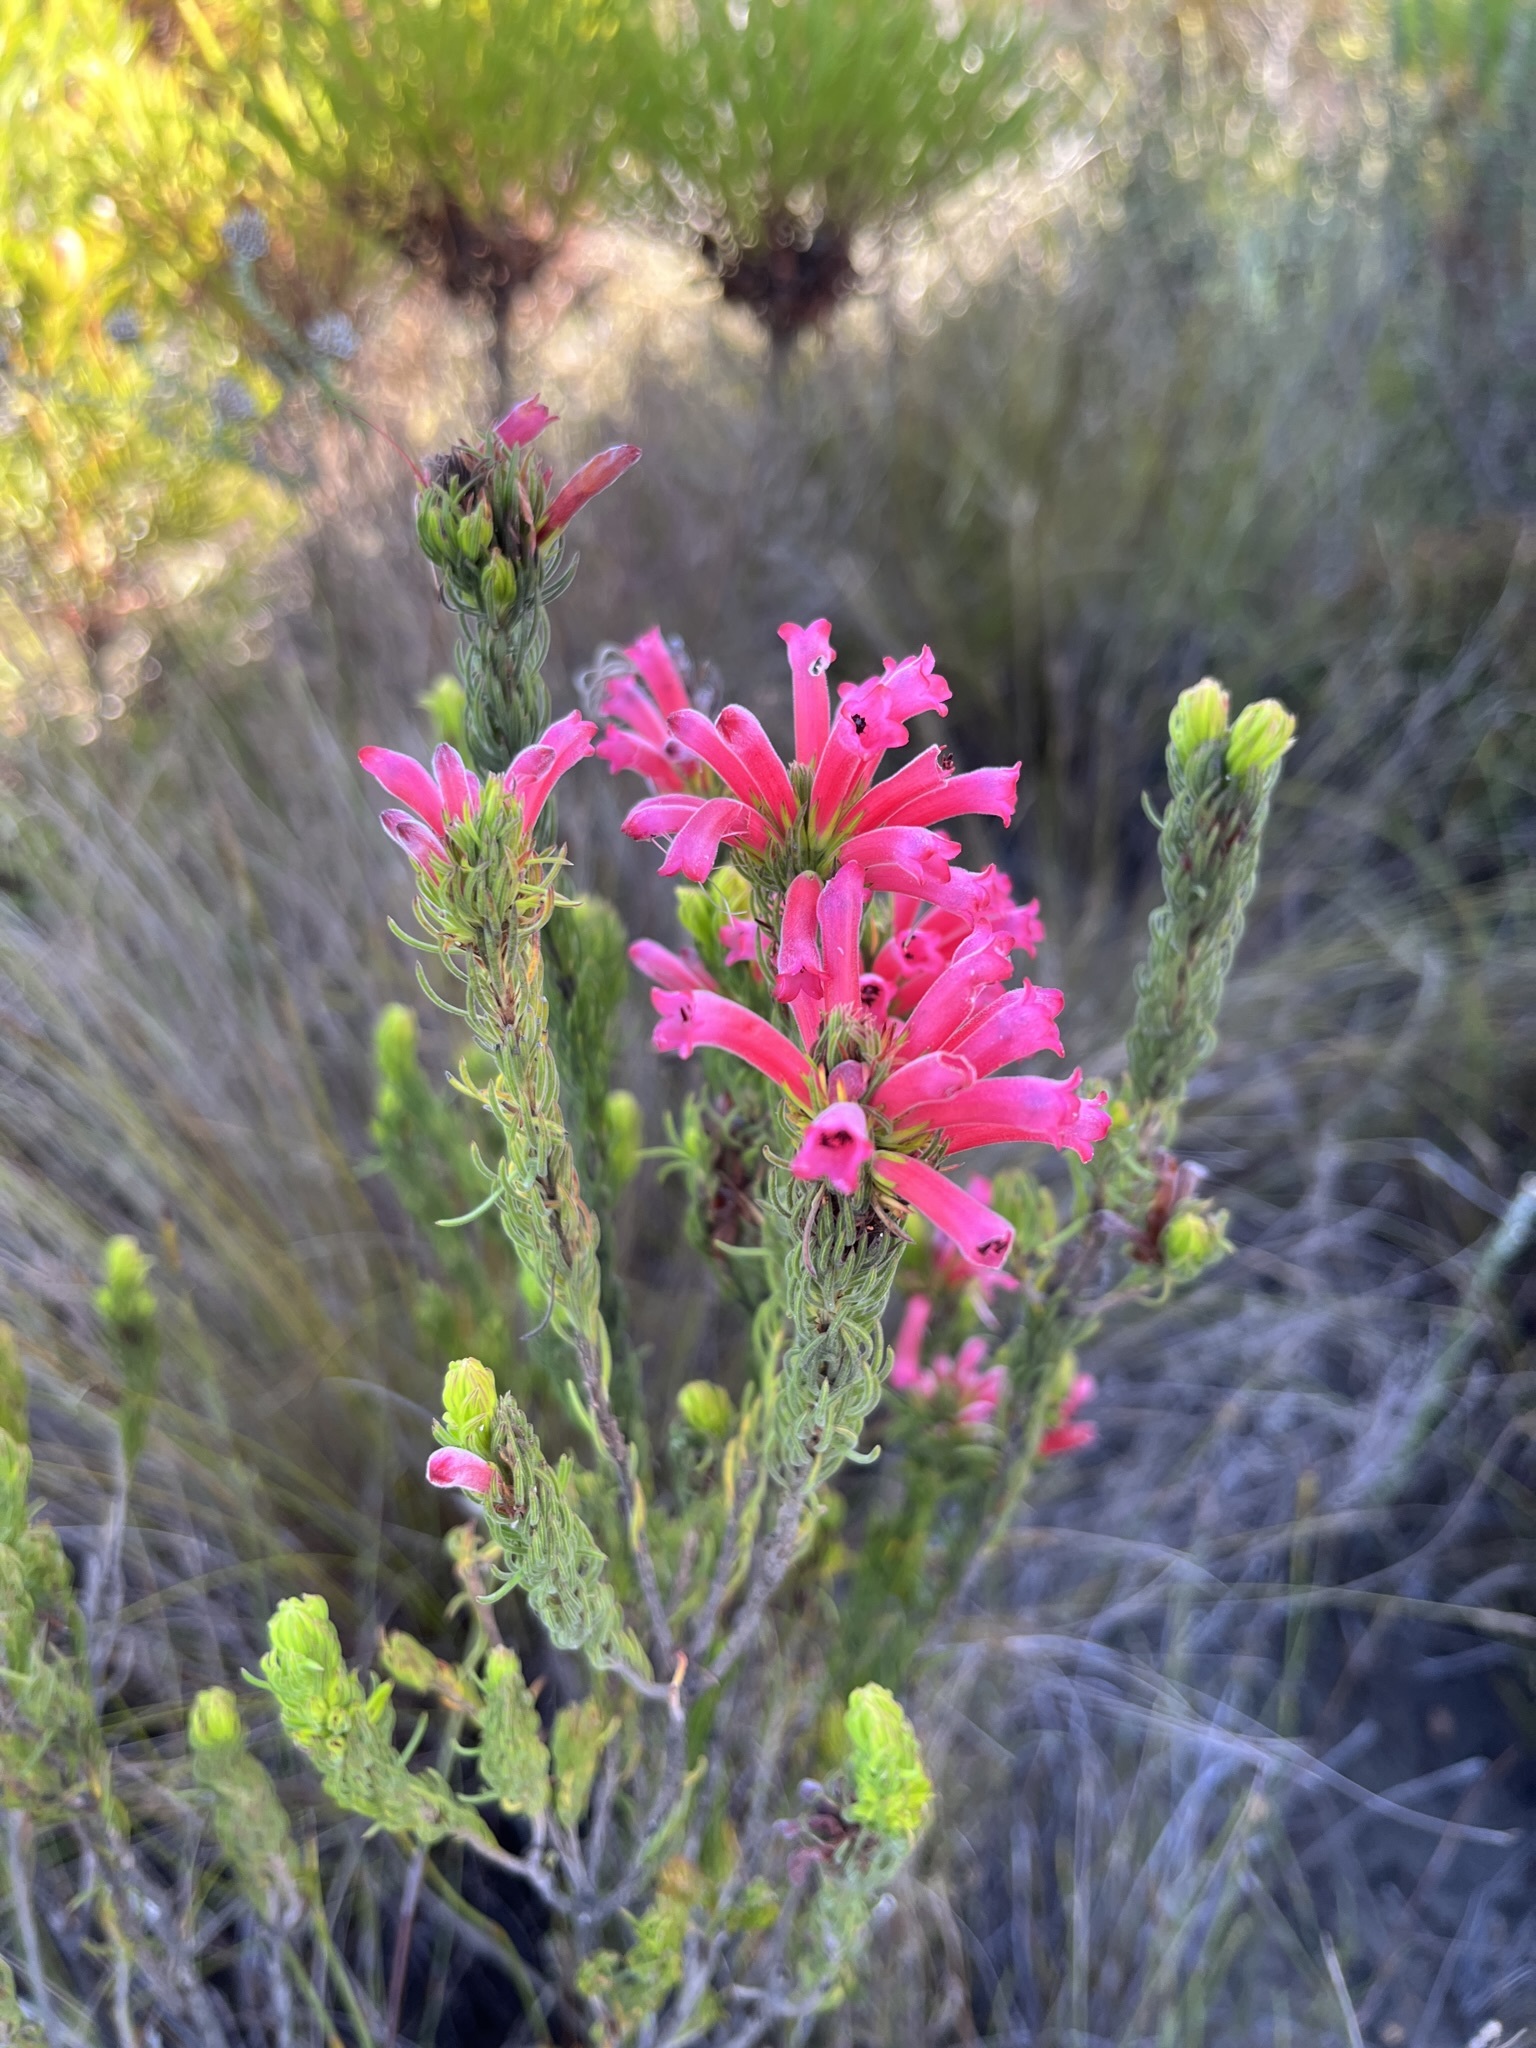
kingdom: Plantae
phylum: Tracheophyta
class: Magnoliopsida
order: Ericales
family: Ericaceae
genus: Erica
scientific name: Erica vestita
